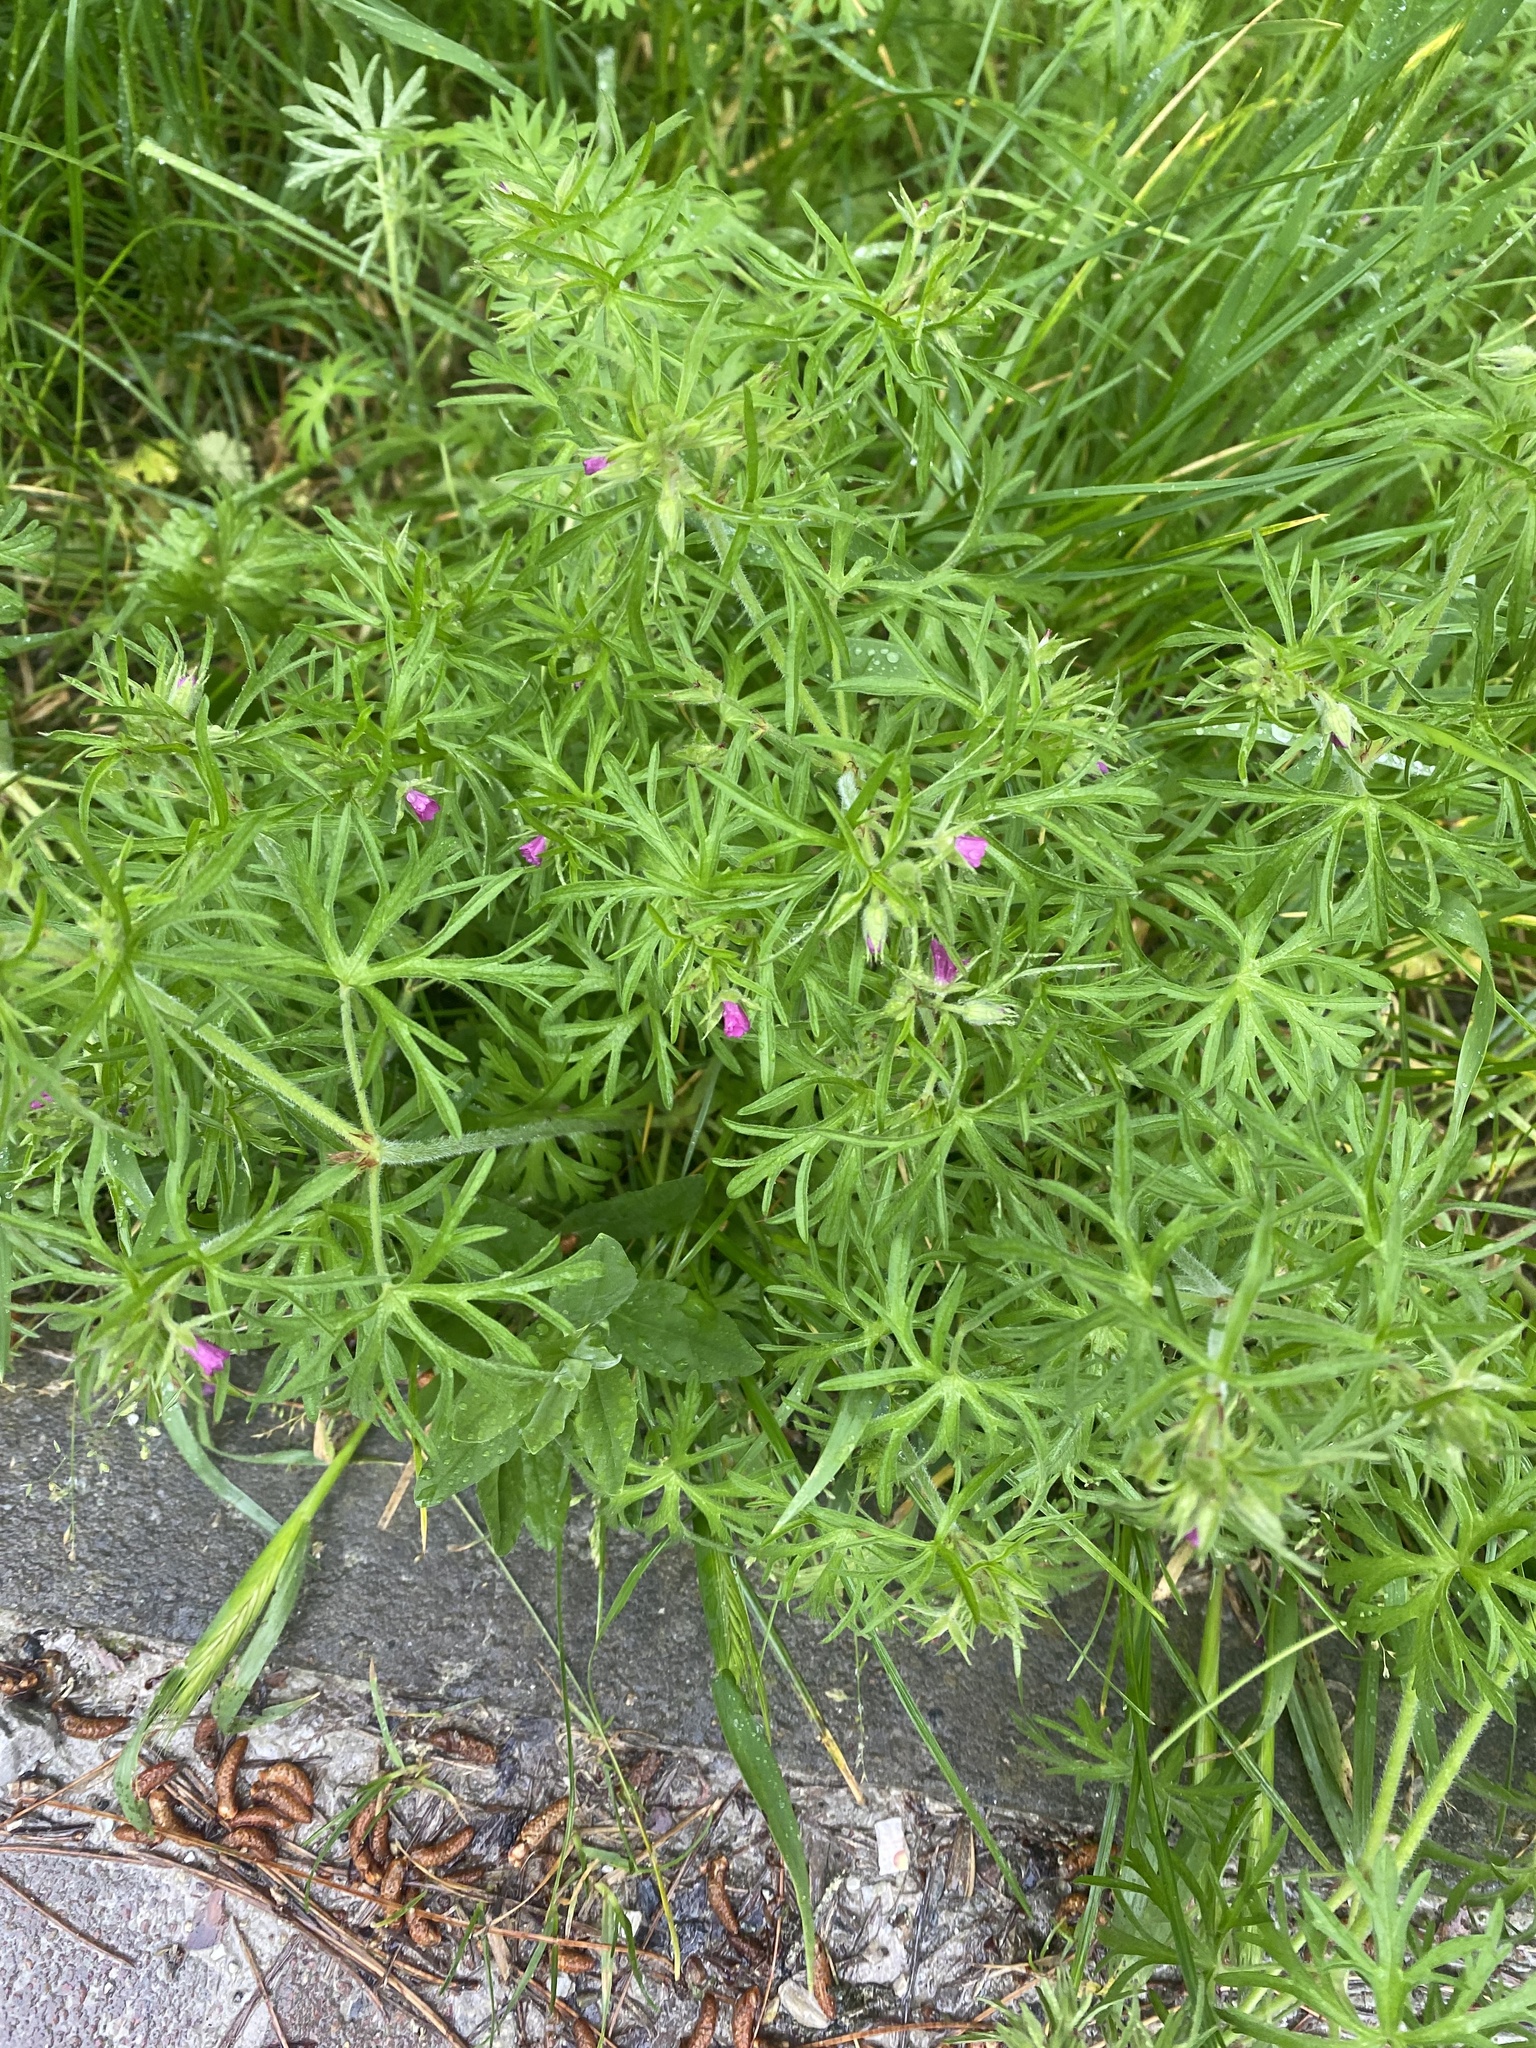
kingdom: Plantae
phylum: Tracheophyta
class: Magnoliopsida
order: Geraniales
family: Geraniaceae
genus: Geranium
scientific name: Geranium dissectum
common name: Cut-leaved crane's-bill
